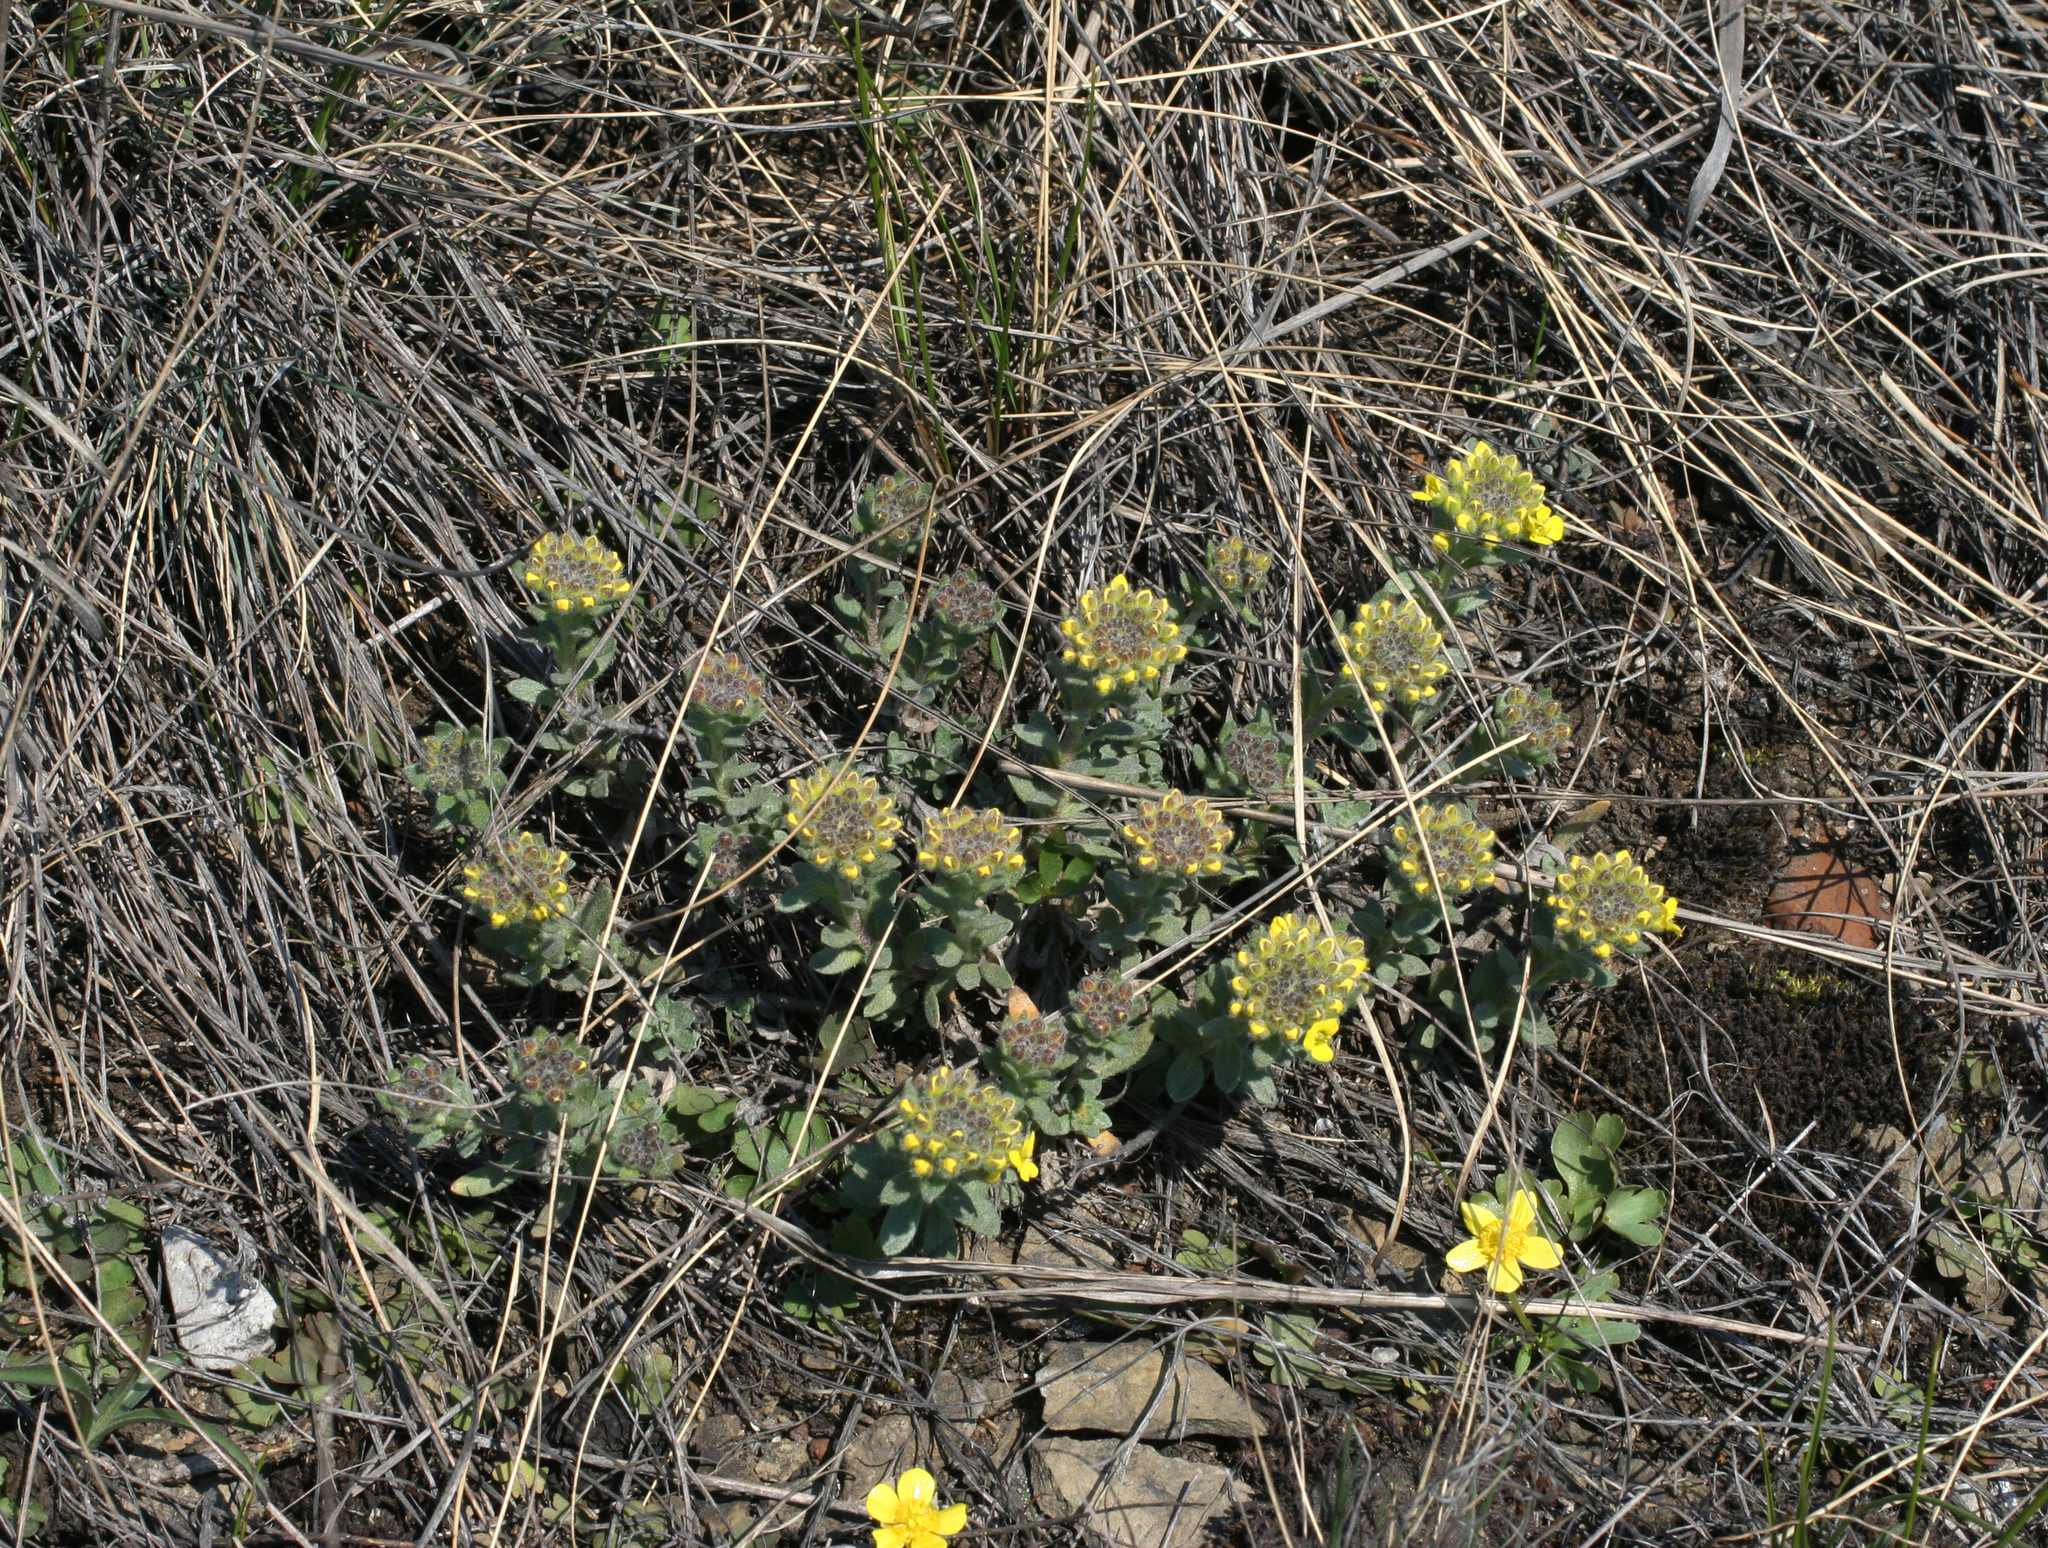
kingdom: Plantae
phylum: Tracheophyta
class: Magnoliopsida
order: Brassicales
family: Brassicaceae
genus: Alyssum
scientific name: Alyssum lenense
